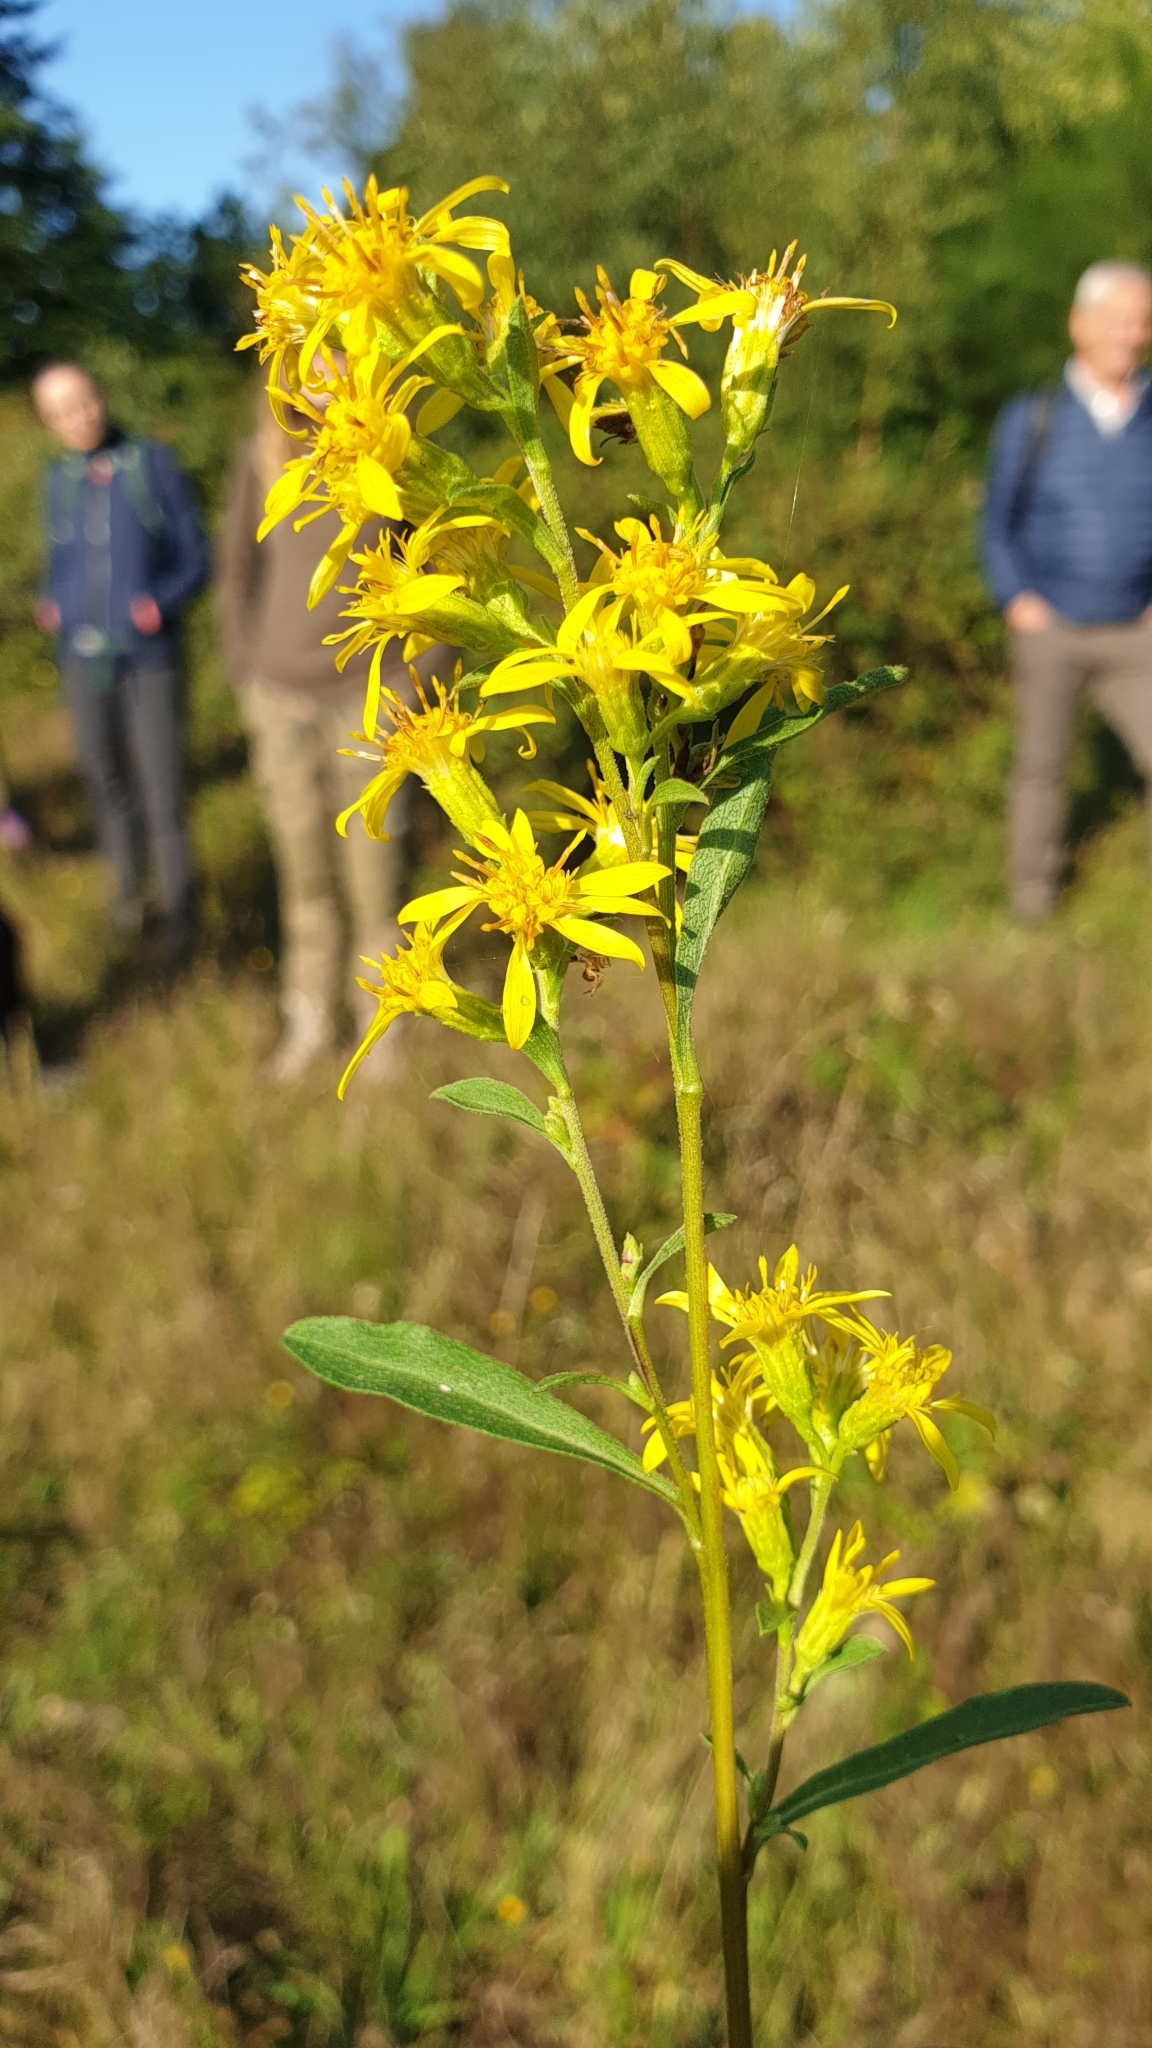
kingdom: Plantae
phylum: Tracheophyta
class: Magnoliopsida
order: Asterales
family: Asteraceae
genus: Solidago
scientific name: Solidago virgaurea
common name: Goldenrod
